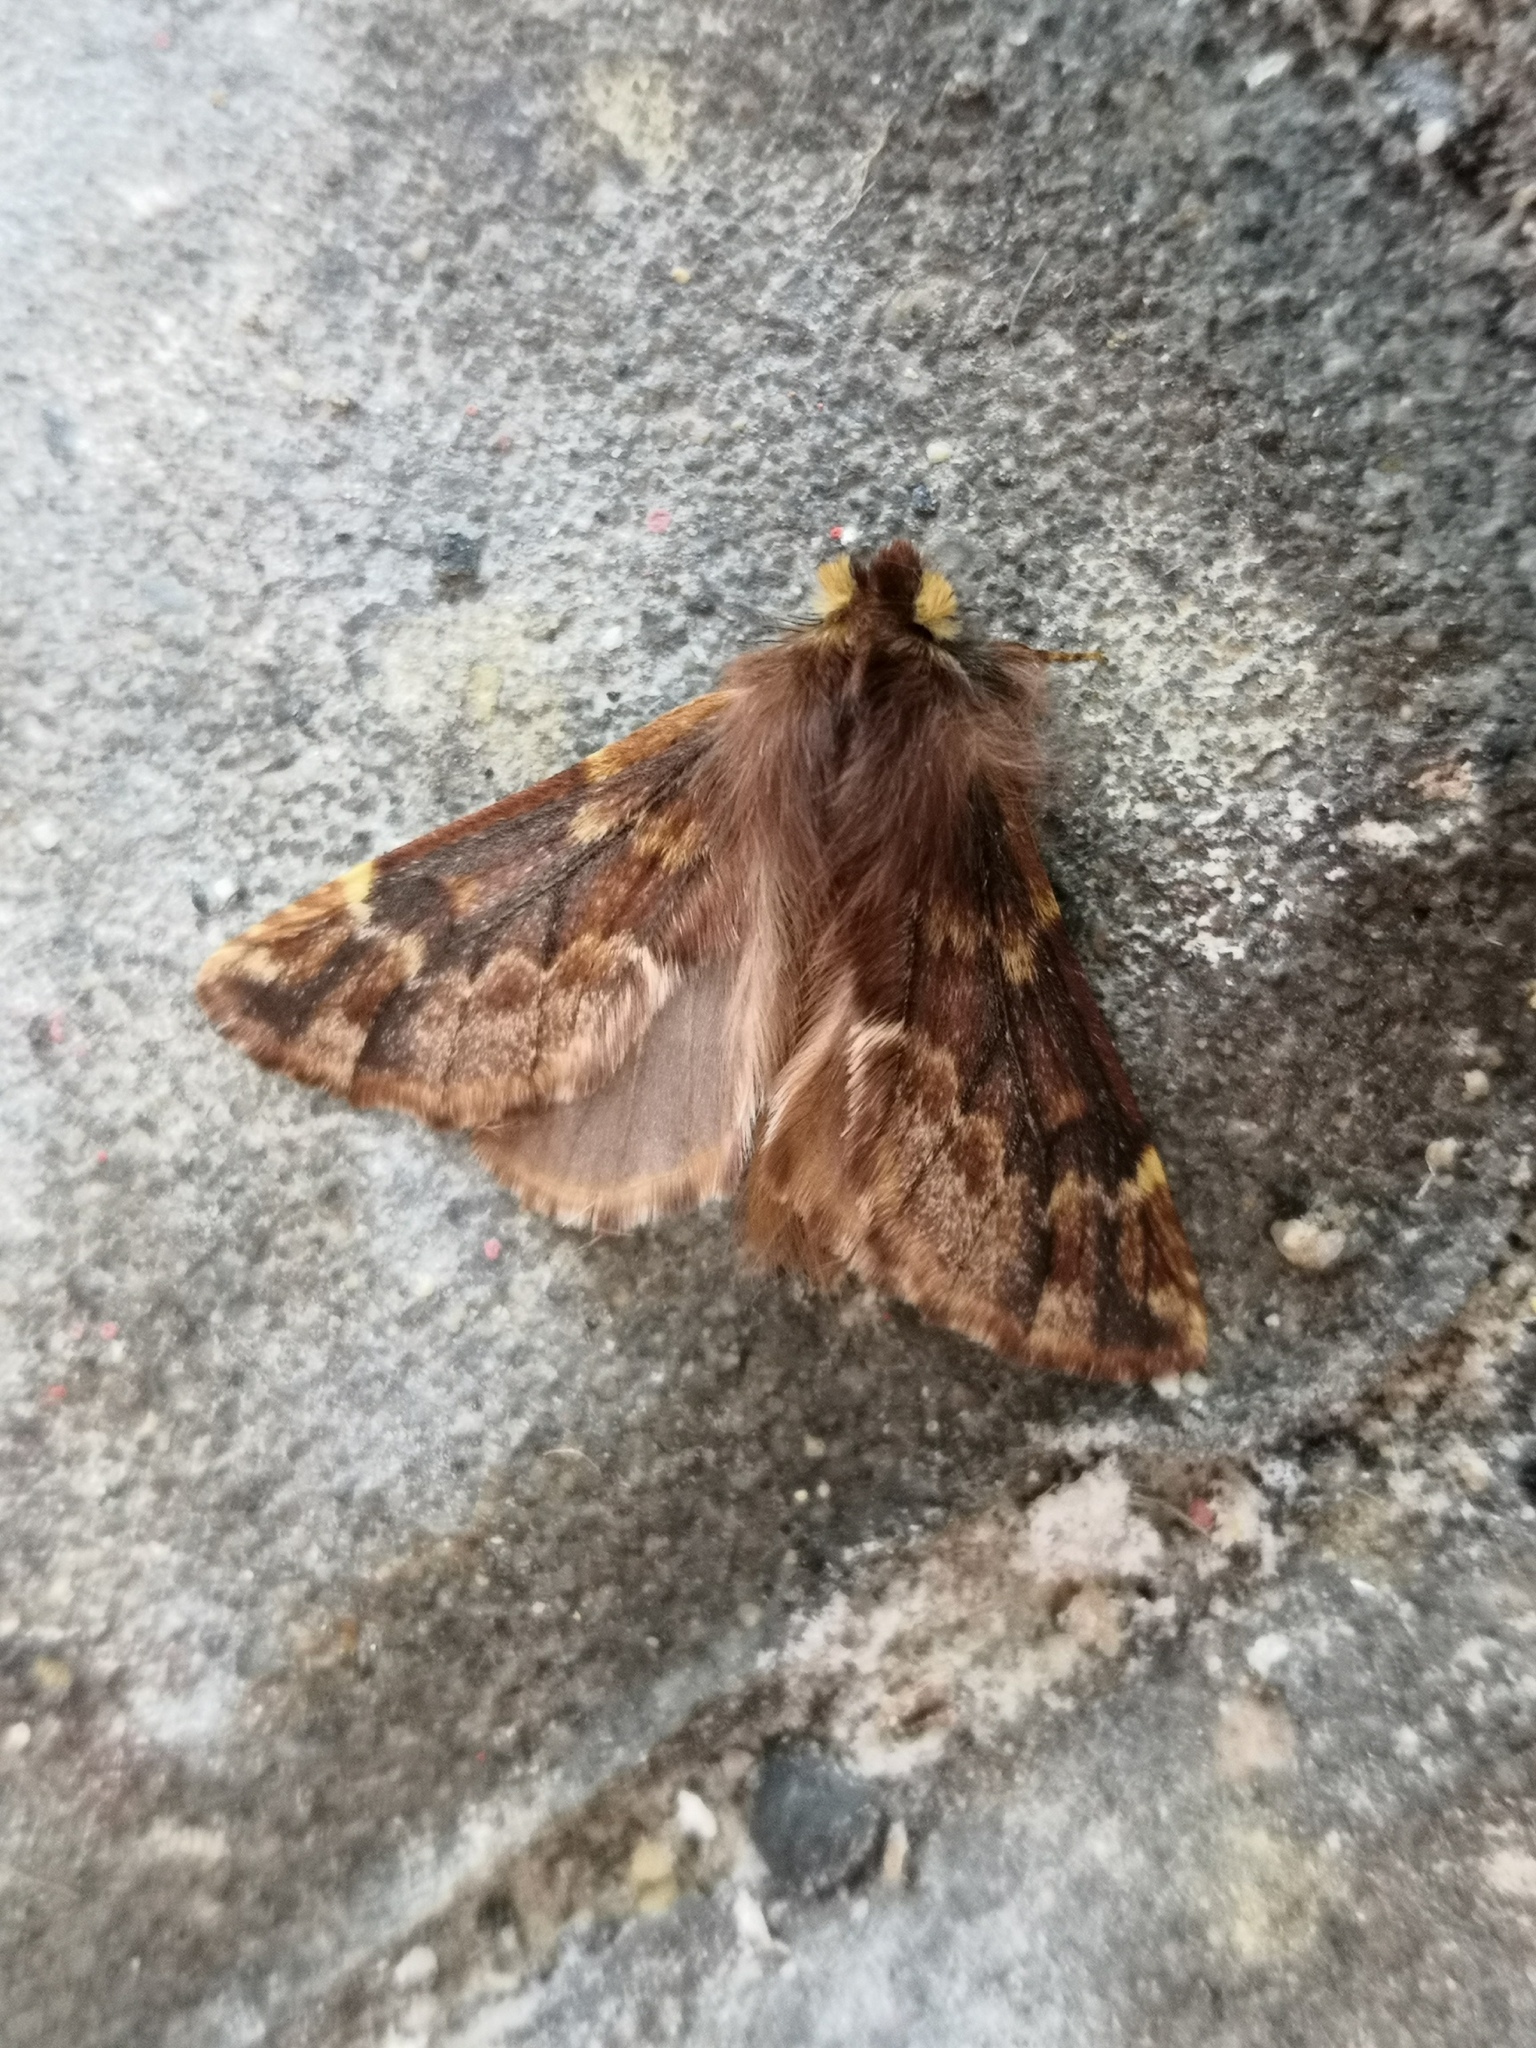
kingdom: Animalia
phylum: Arthropoda
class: Insecta
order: Lepidoptera
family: Notodontidae
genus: Ptilophora
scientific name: Ptilophora plumigera
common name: Plumed prominent
